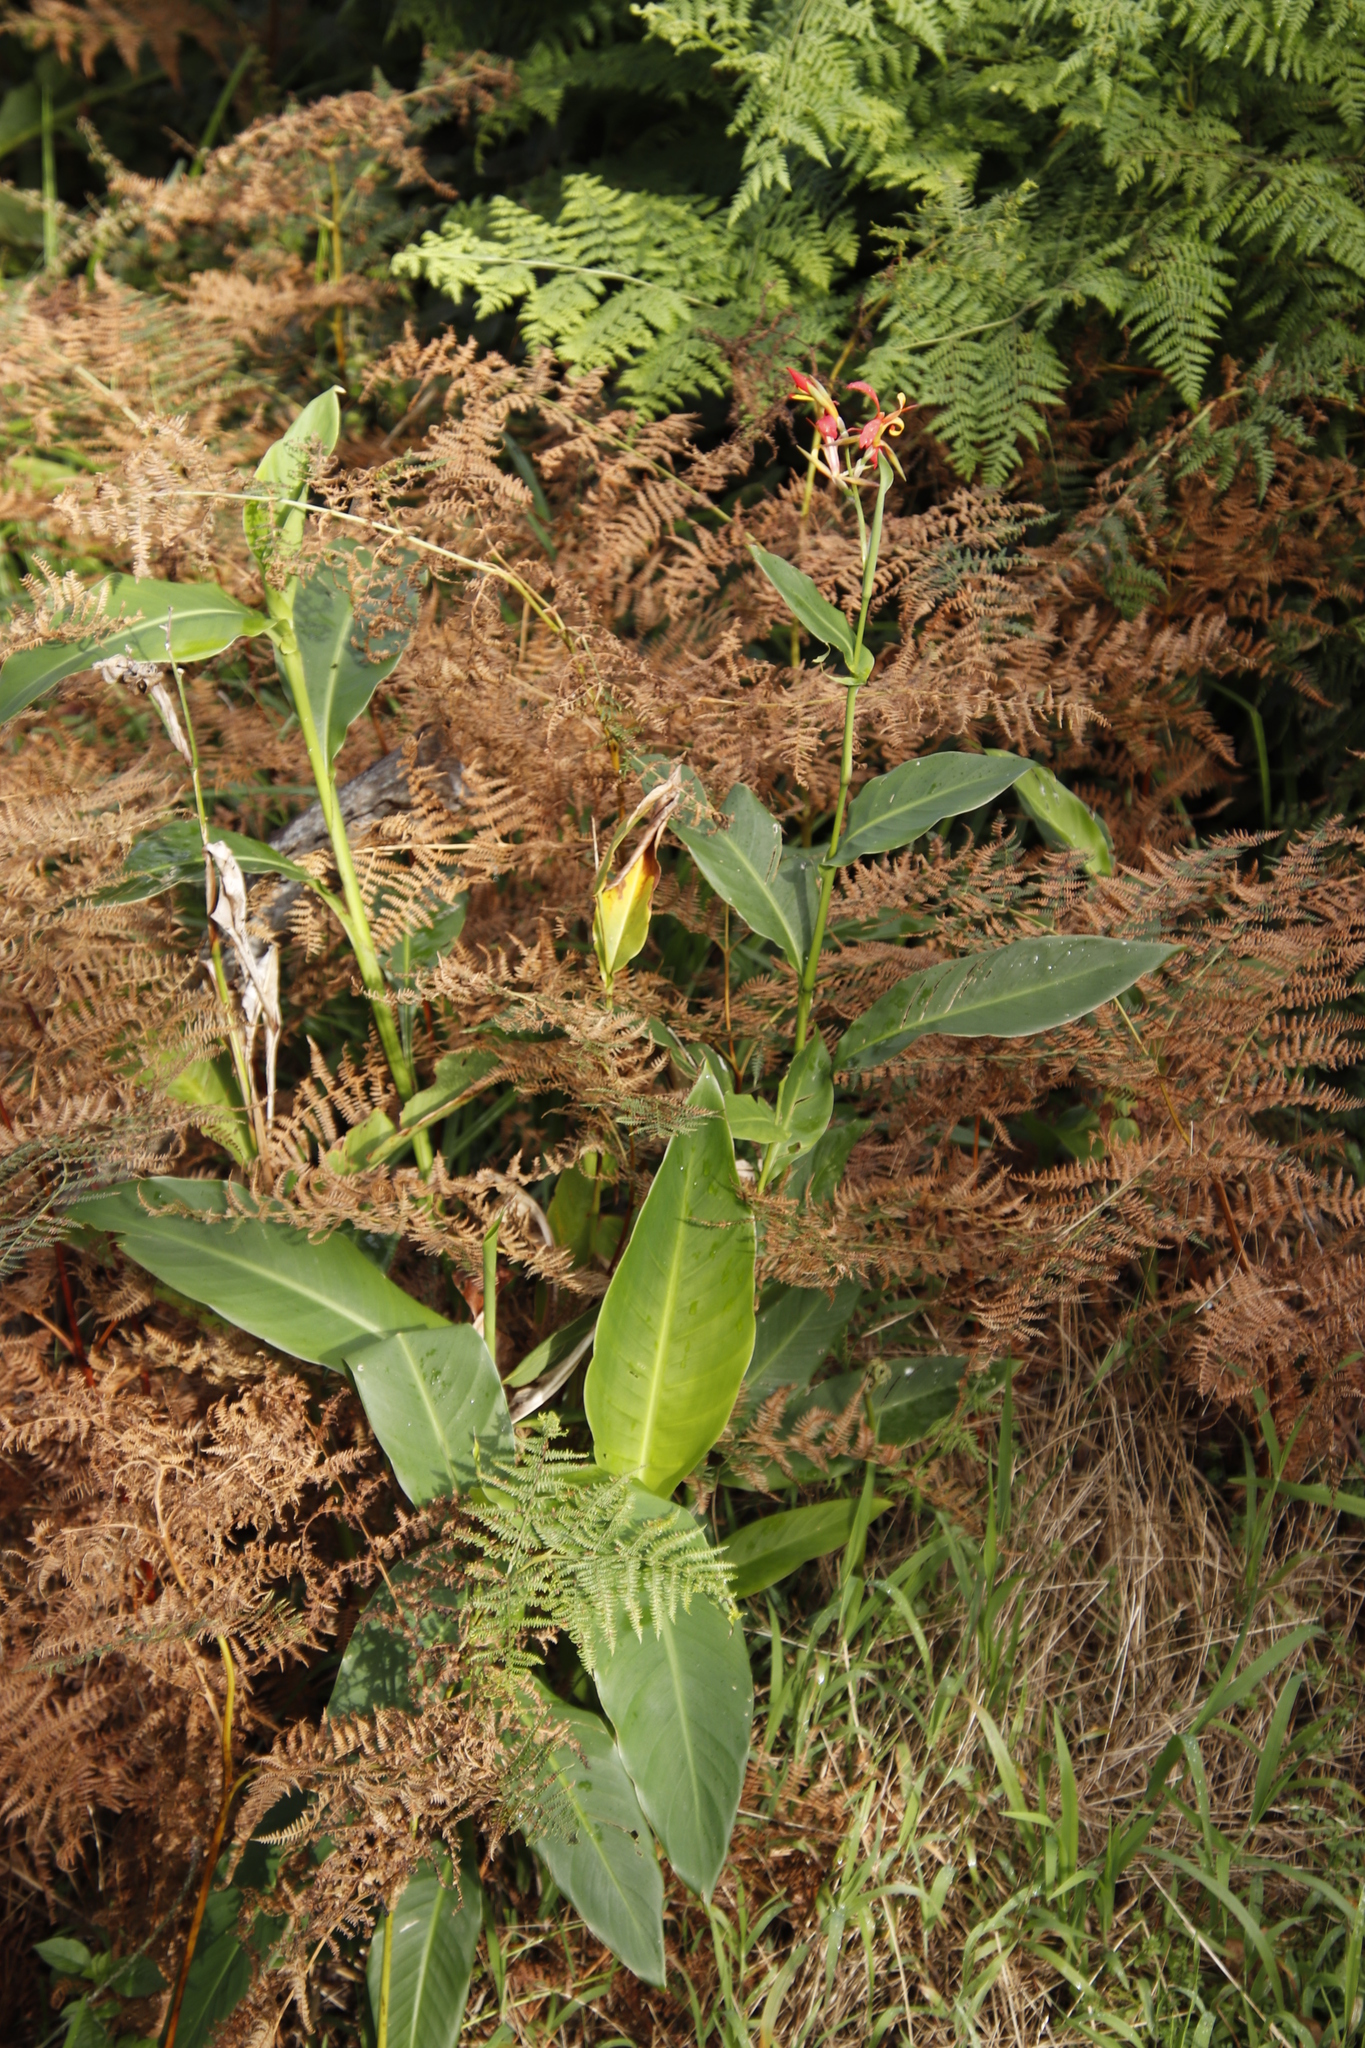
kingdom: Plantae
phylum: Tracheophyta
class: Liliopsida
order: Zingiberales
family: Cannaceae
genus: Canna
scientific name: Canna indica
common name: Indian shot
